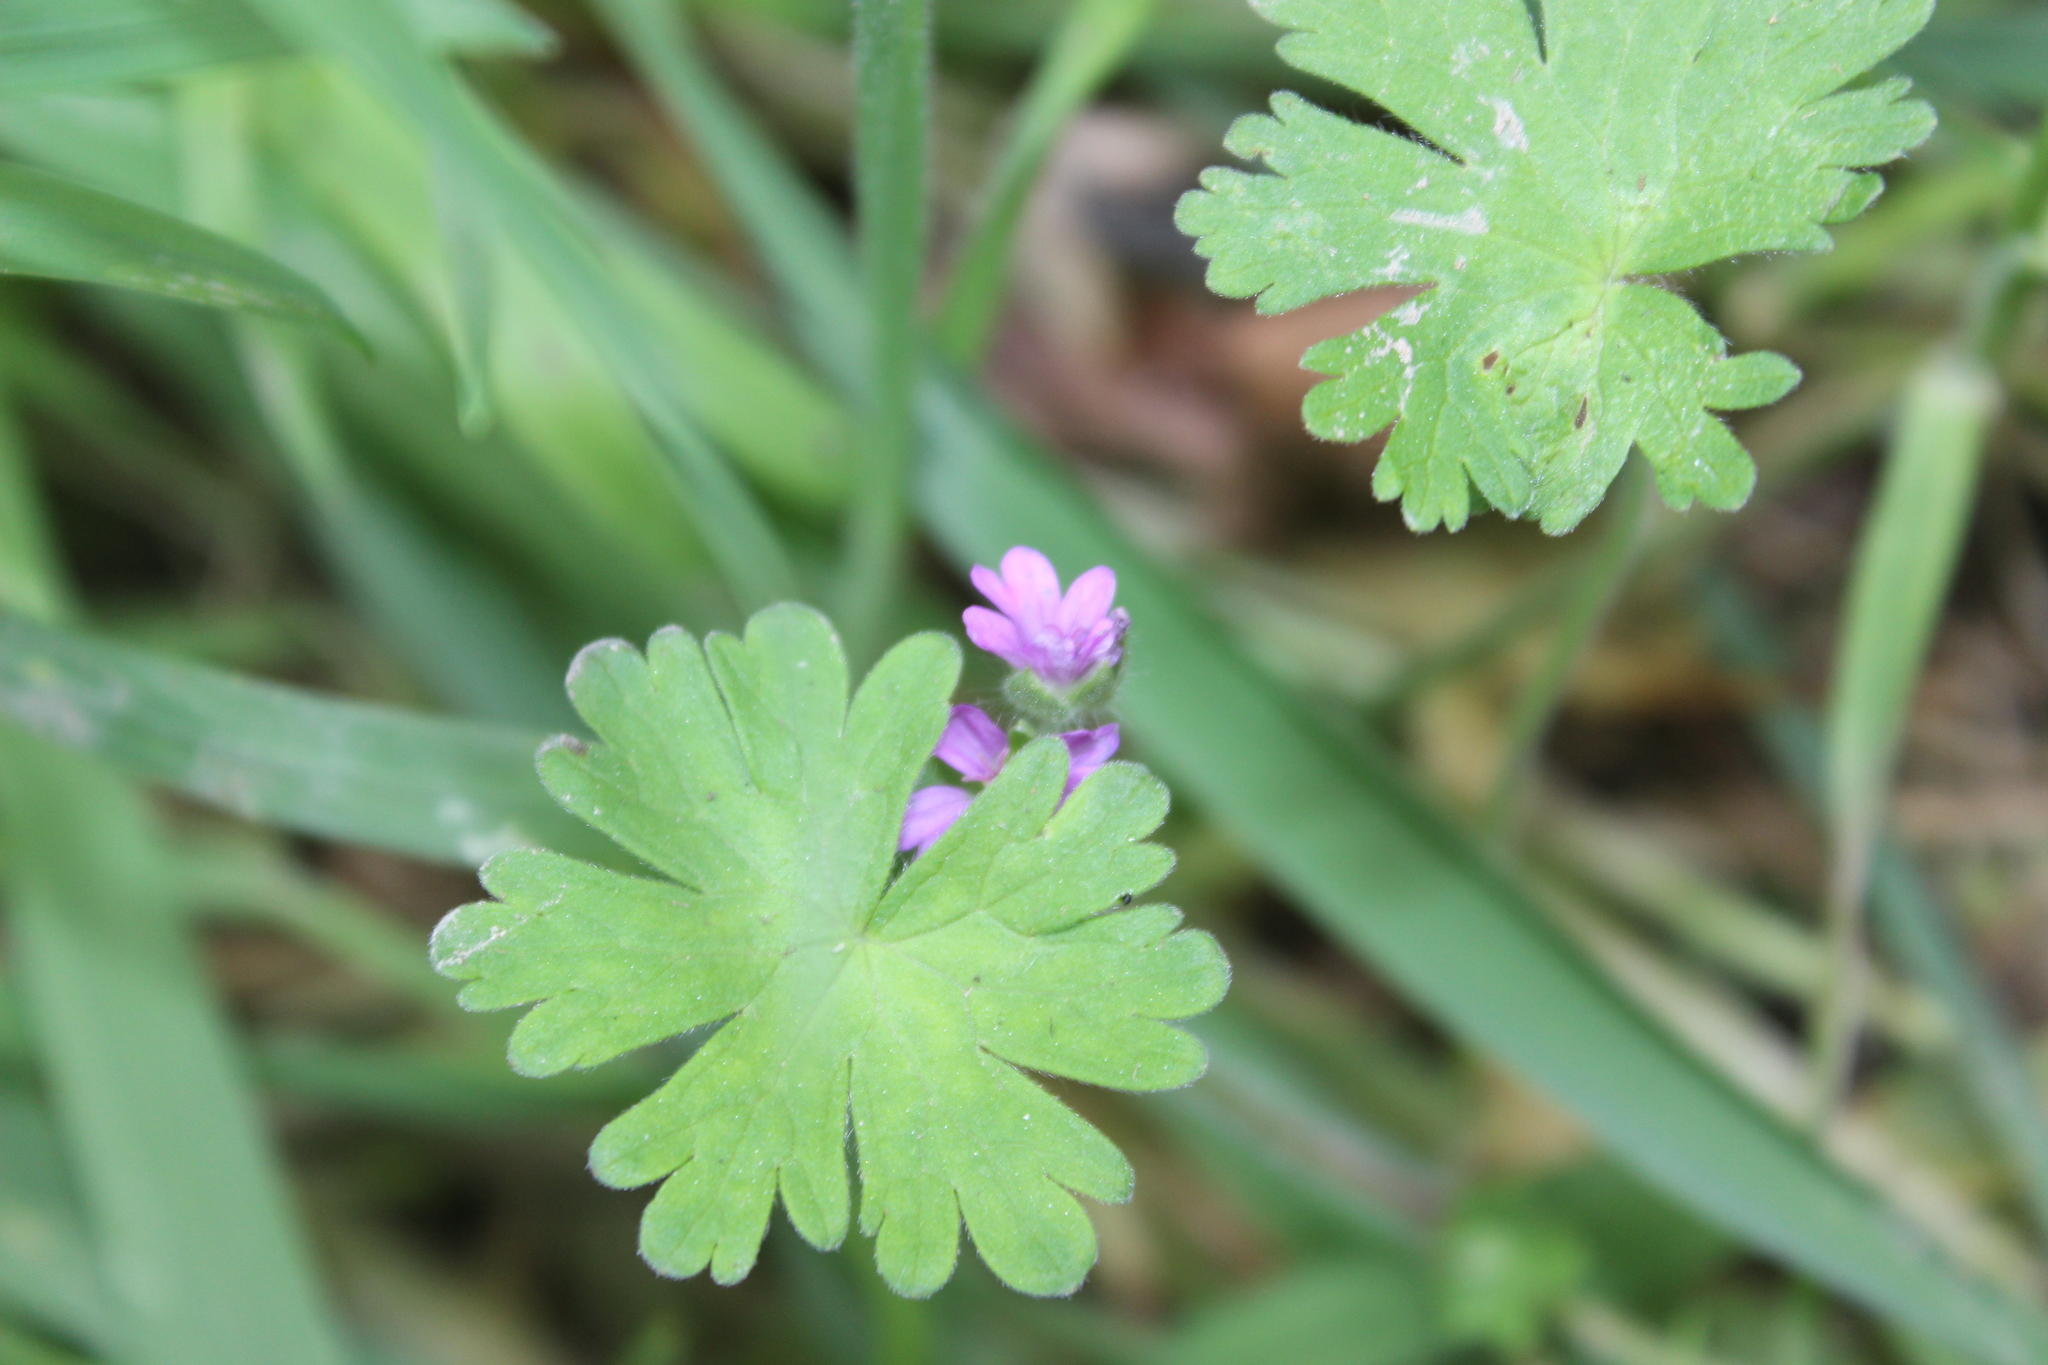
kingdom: Plantae
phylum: Tracheophyta
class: Magnoliopsida
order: Geraniales
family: Geraniaceae
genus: Geranium
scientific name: Geranium molle
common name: Dove's-foot crane's-bill
